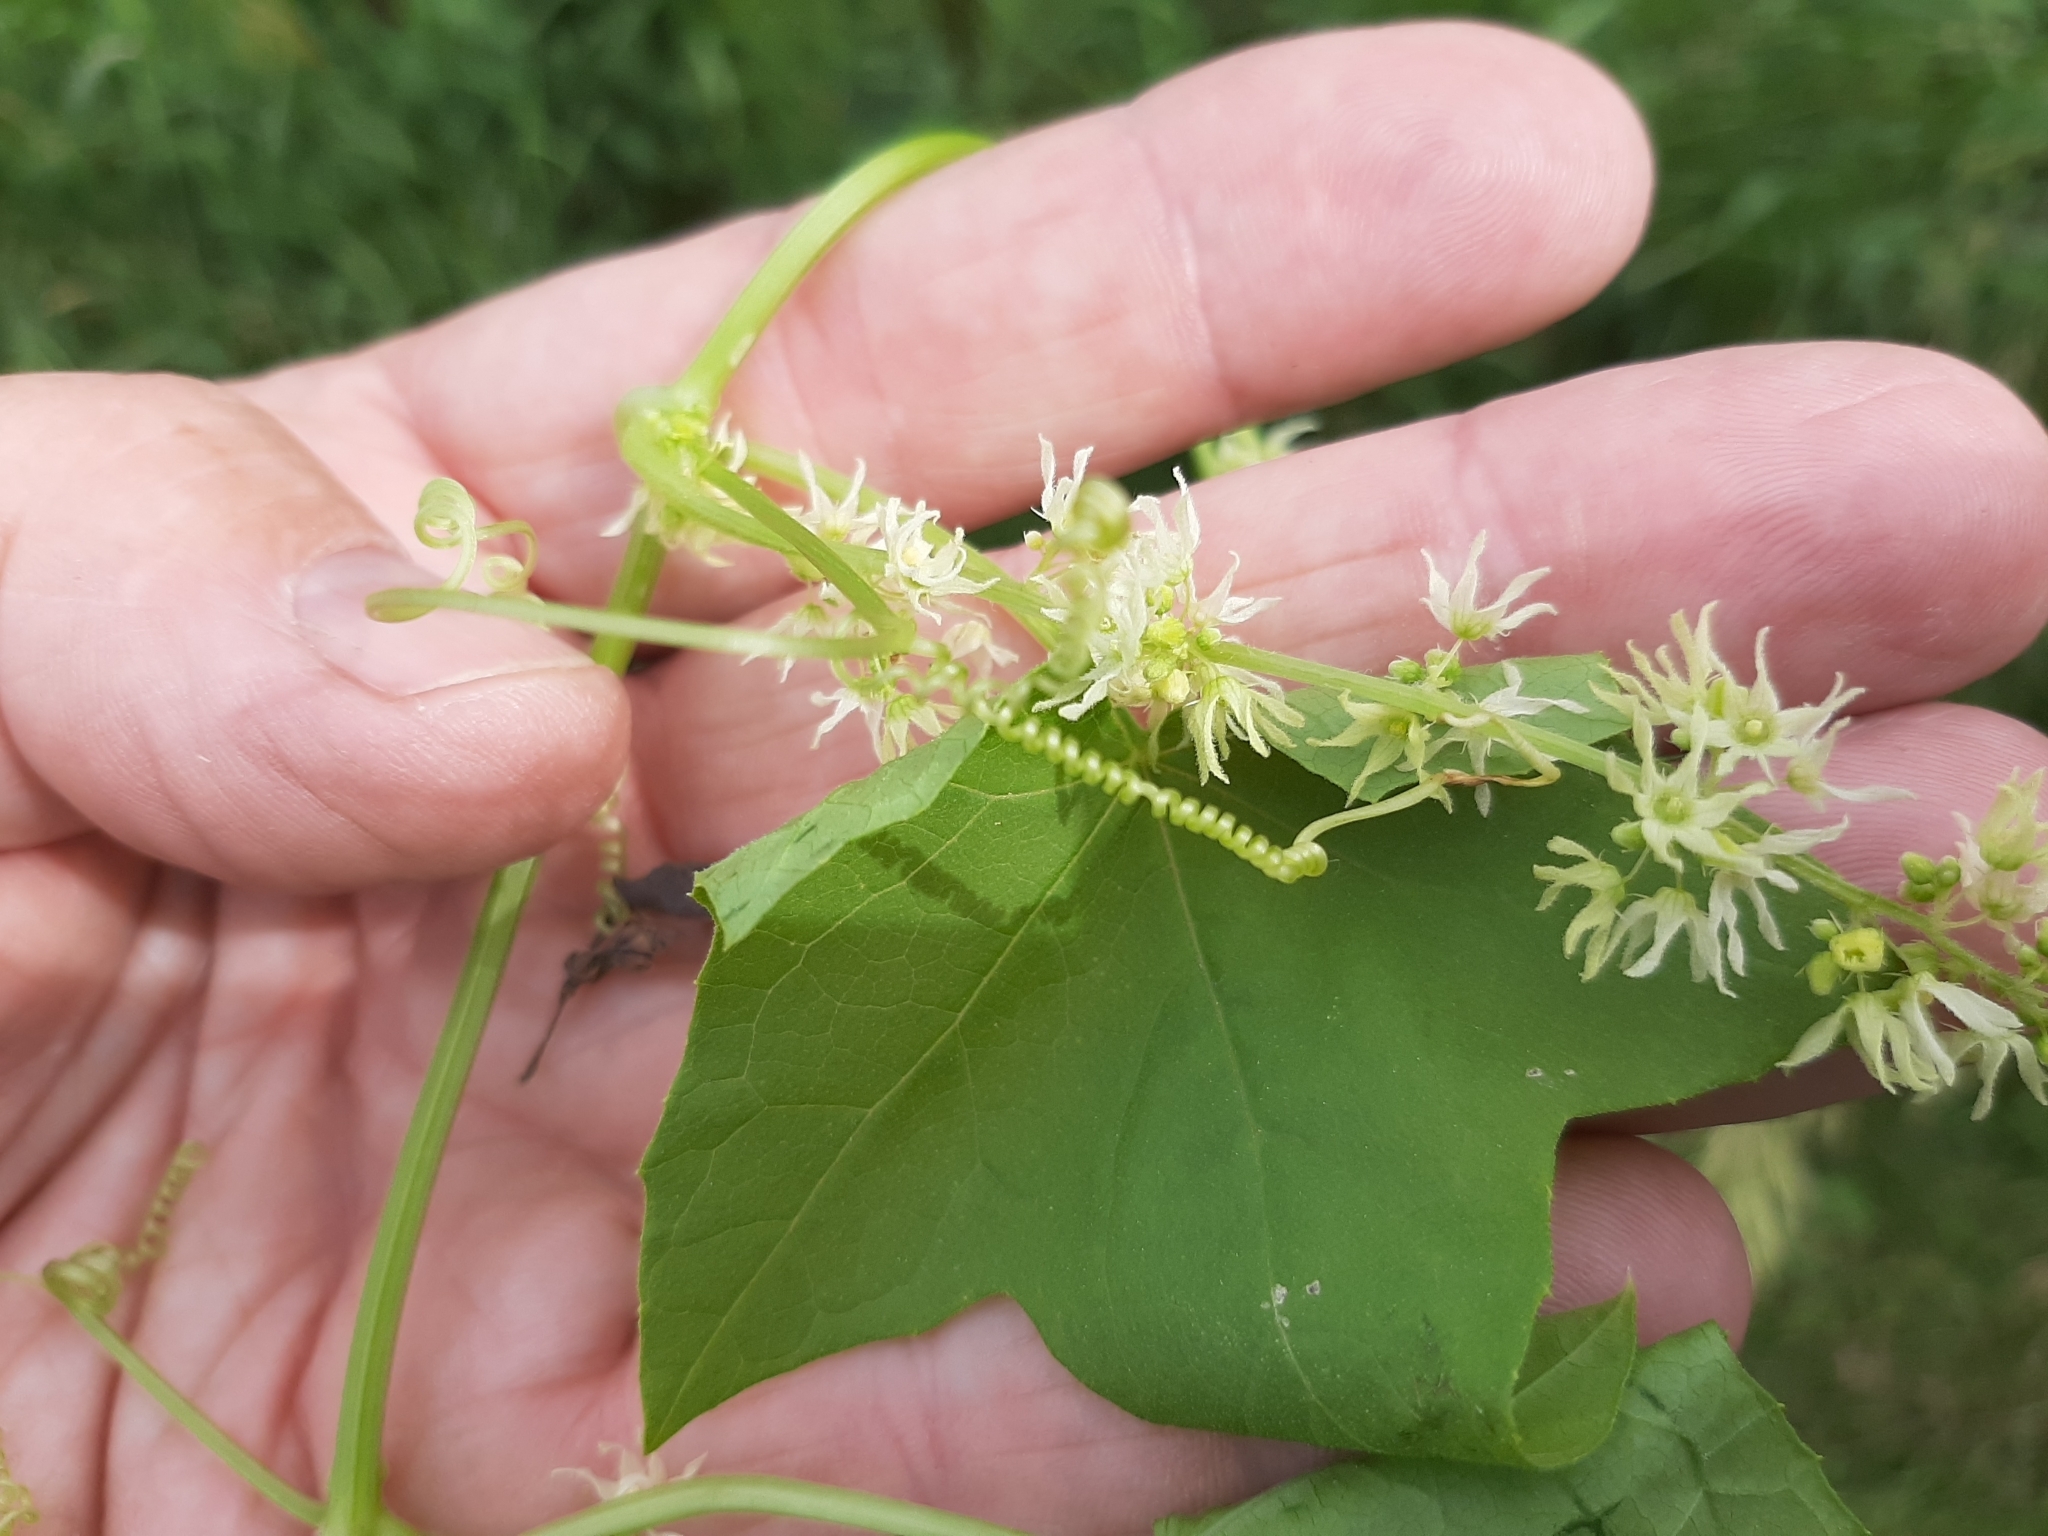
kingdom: Plantae
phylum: Tracheophyta
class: Magnoliopsida
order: Cucurbitales
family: Cucurbitaceae
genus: Echinocystis
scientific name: Echinocystis lobata
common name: Wild cucumber
